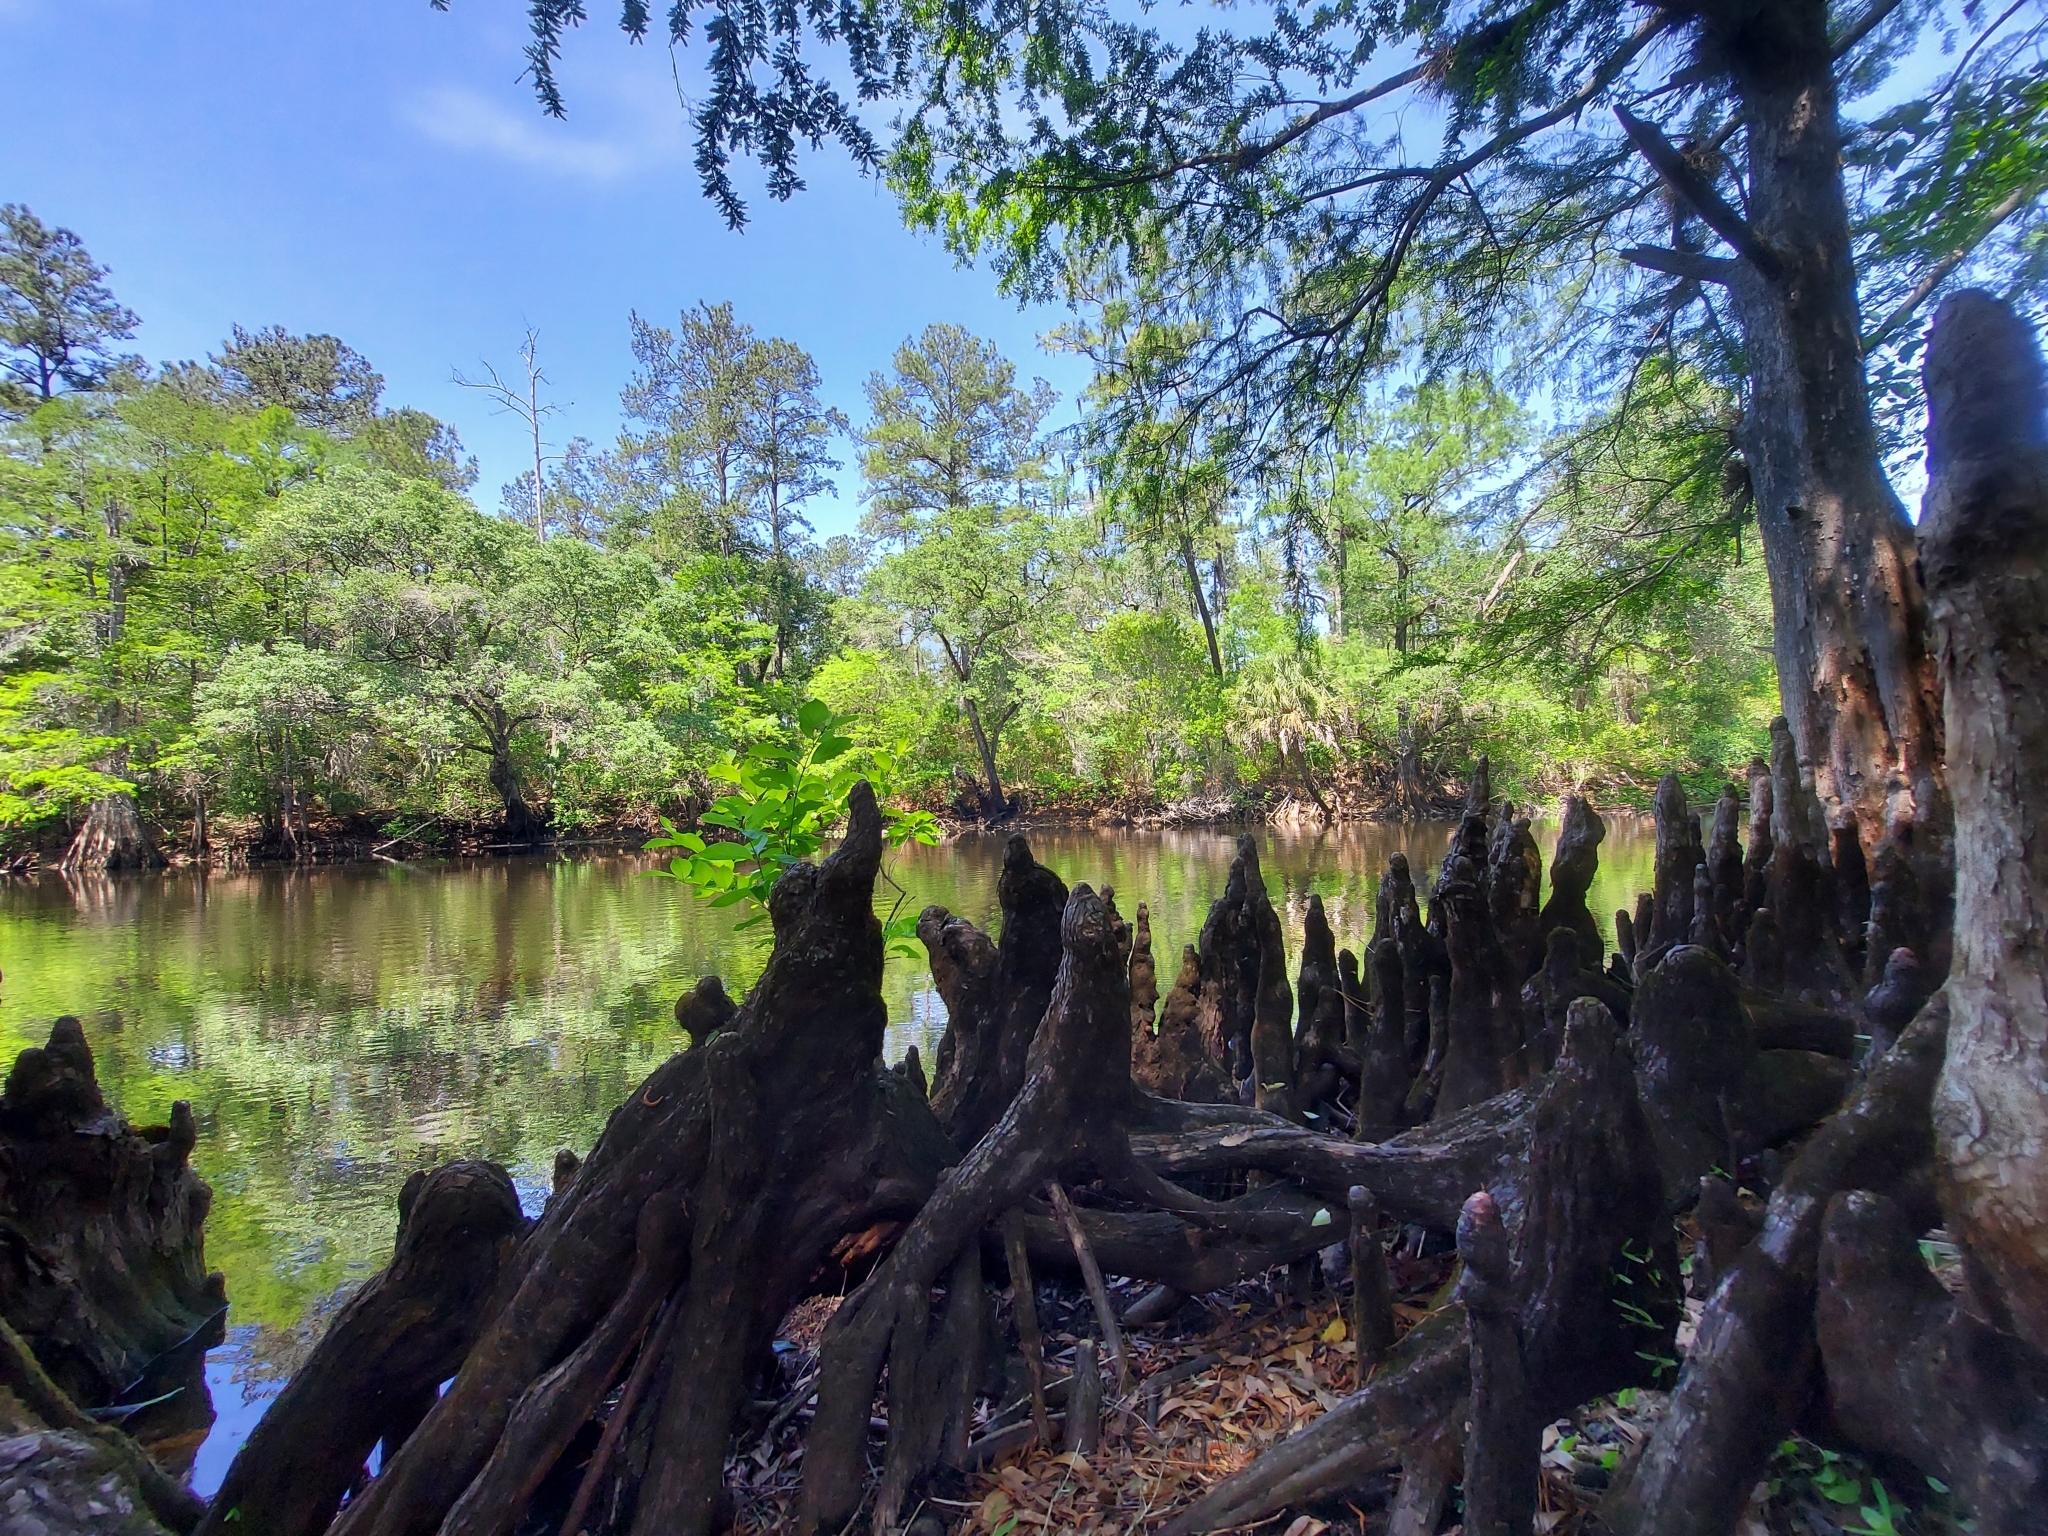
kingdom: Plantae
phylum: Tracheophyta
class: Pinopsida
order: Pinales
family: Cupressaceae
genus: Taxodium
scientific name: Taxodium distichum
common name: Bald cypress
